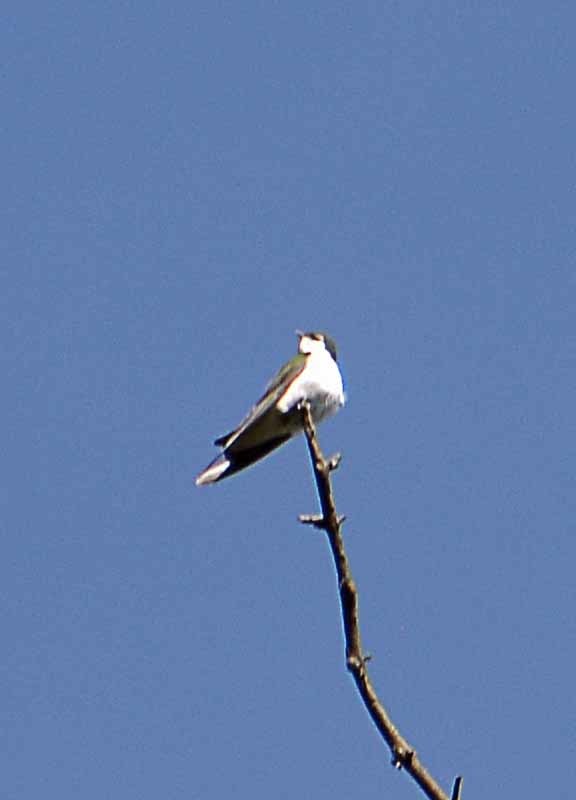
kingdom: Animalia
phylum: Chordata
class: Aves
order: Passeriformes
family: Hirundinidae
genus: Tachycineta
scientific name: Tachycineta thalassina
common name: Violet-green swallow
